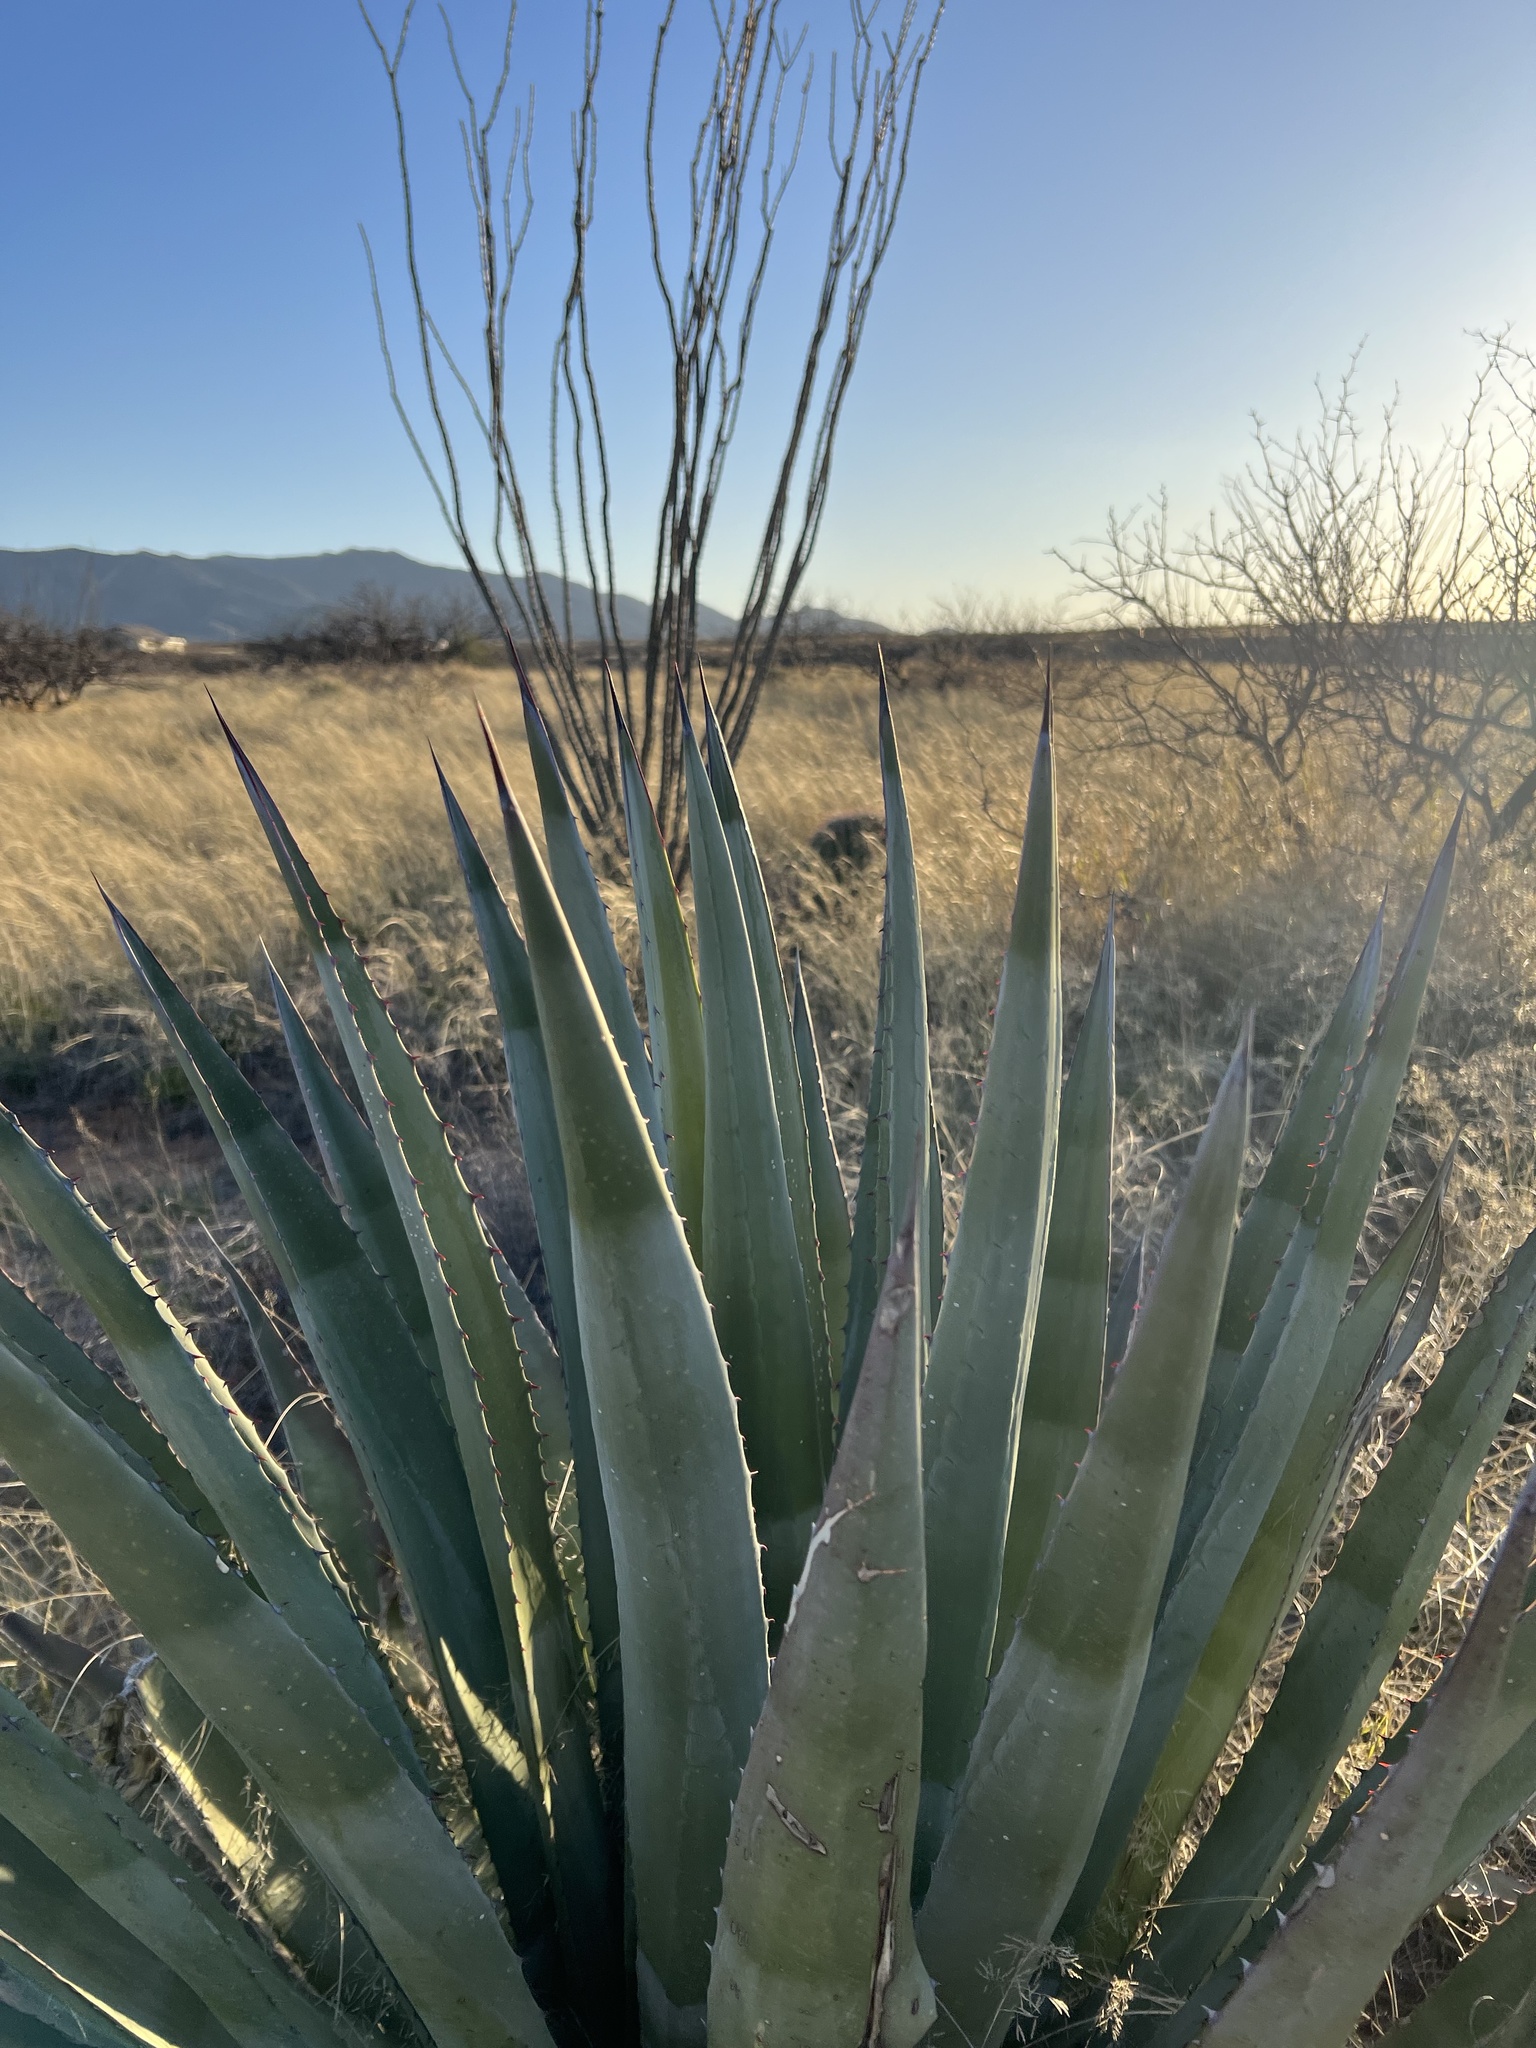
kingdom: Plantae
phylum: Tracheophyta
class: Liliopsida
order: Asparagales
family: Asparagaceae
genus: Agave
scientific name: Agave palmeri
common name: Palmer agave
